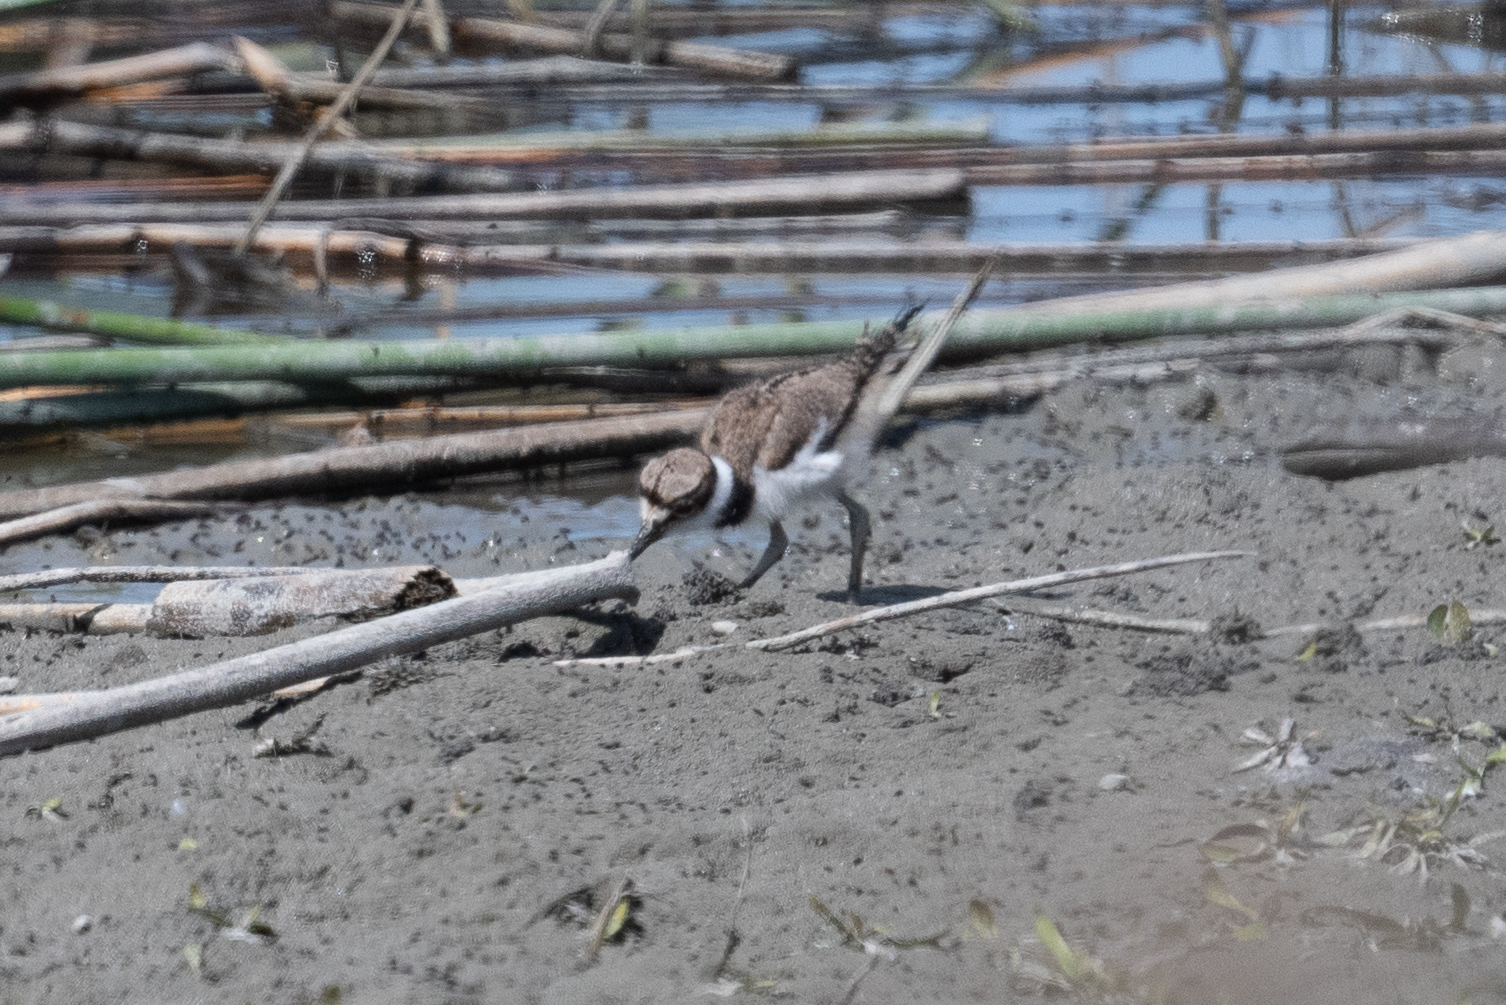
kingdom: Animalia
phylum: Chordata
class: Aves
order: Charadriiformes
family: Charadriidae
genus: Charadrius
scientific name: Charadrius vociferus
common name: Killdeer
